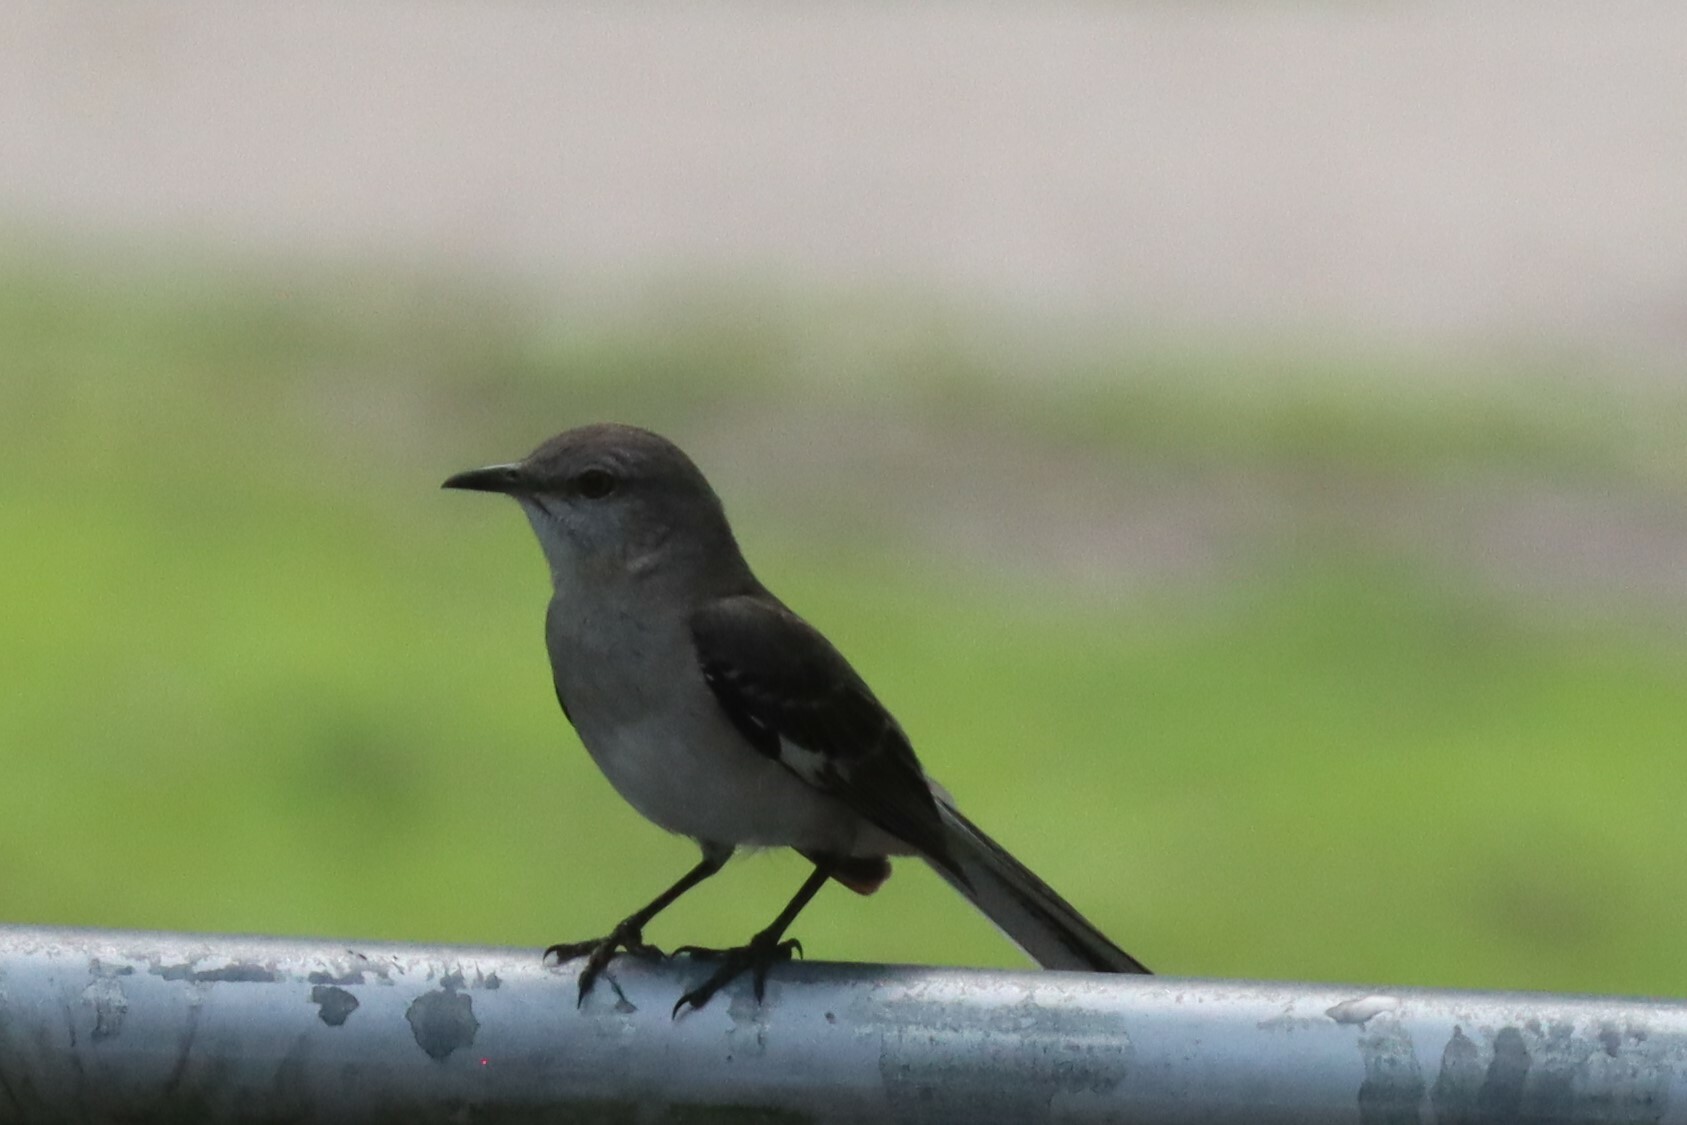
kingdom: Animalia
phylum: Chordata
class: Aves
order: Passeriformes
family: Mimidae
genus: Mimus
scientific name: Mimus polyglottos
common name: Northern mockingbird
